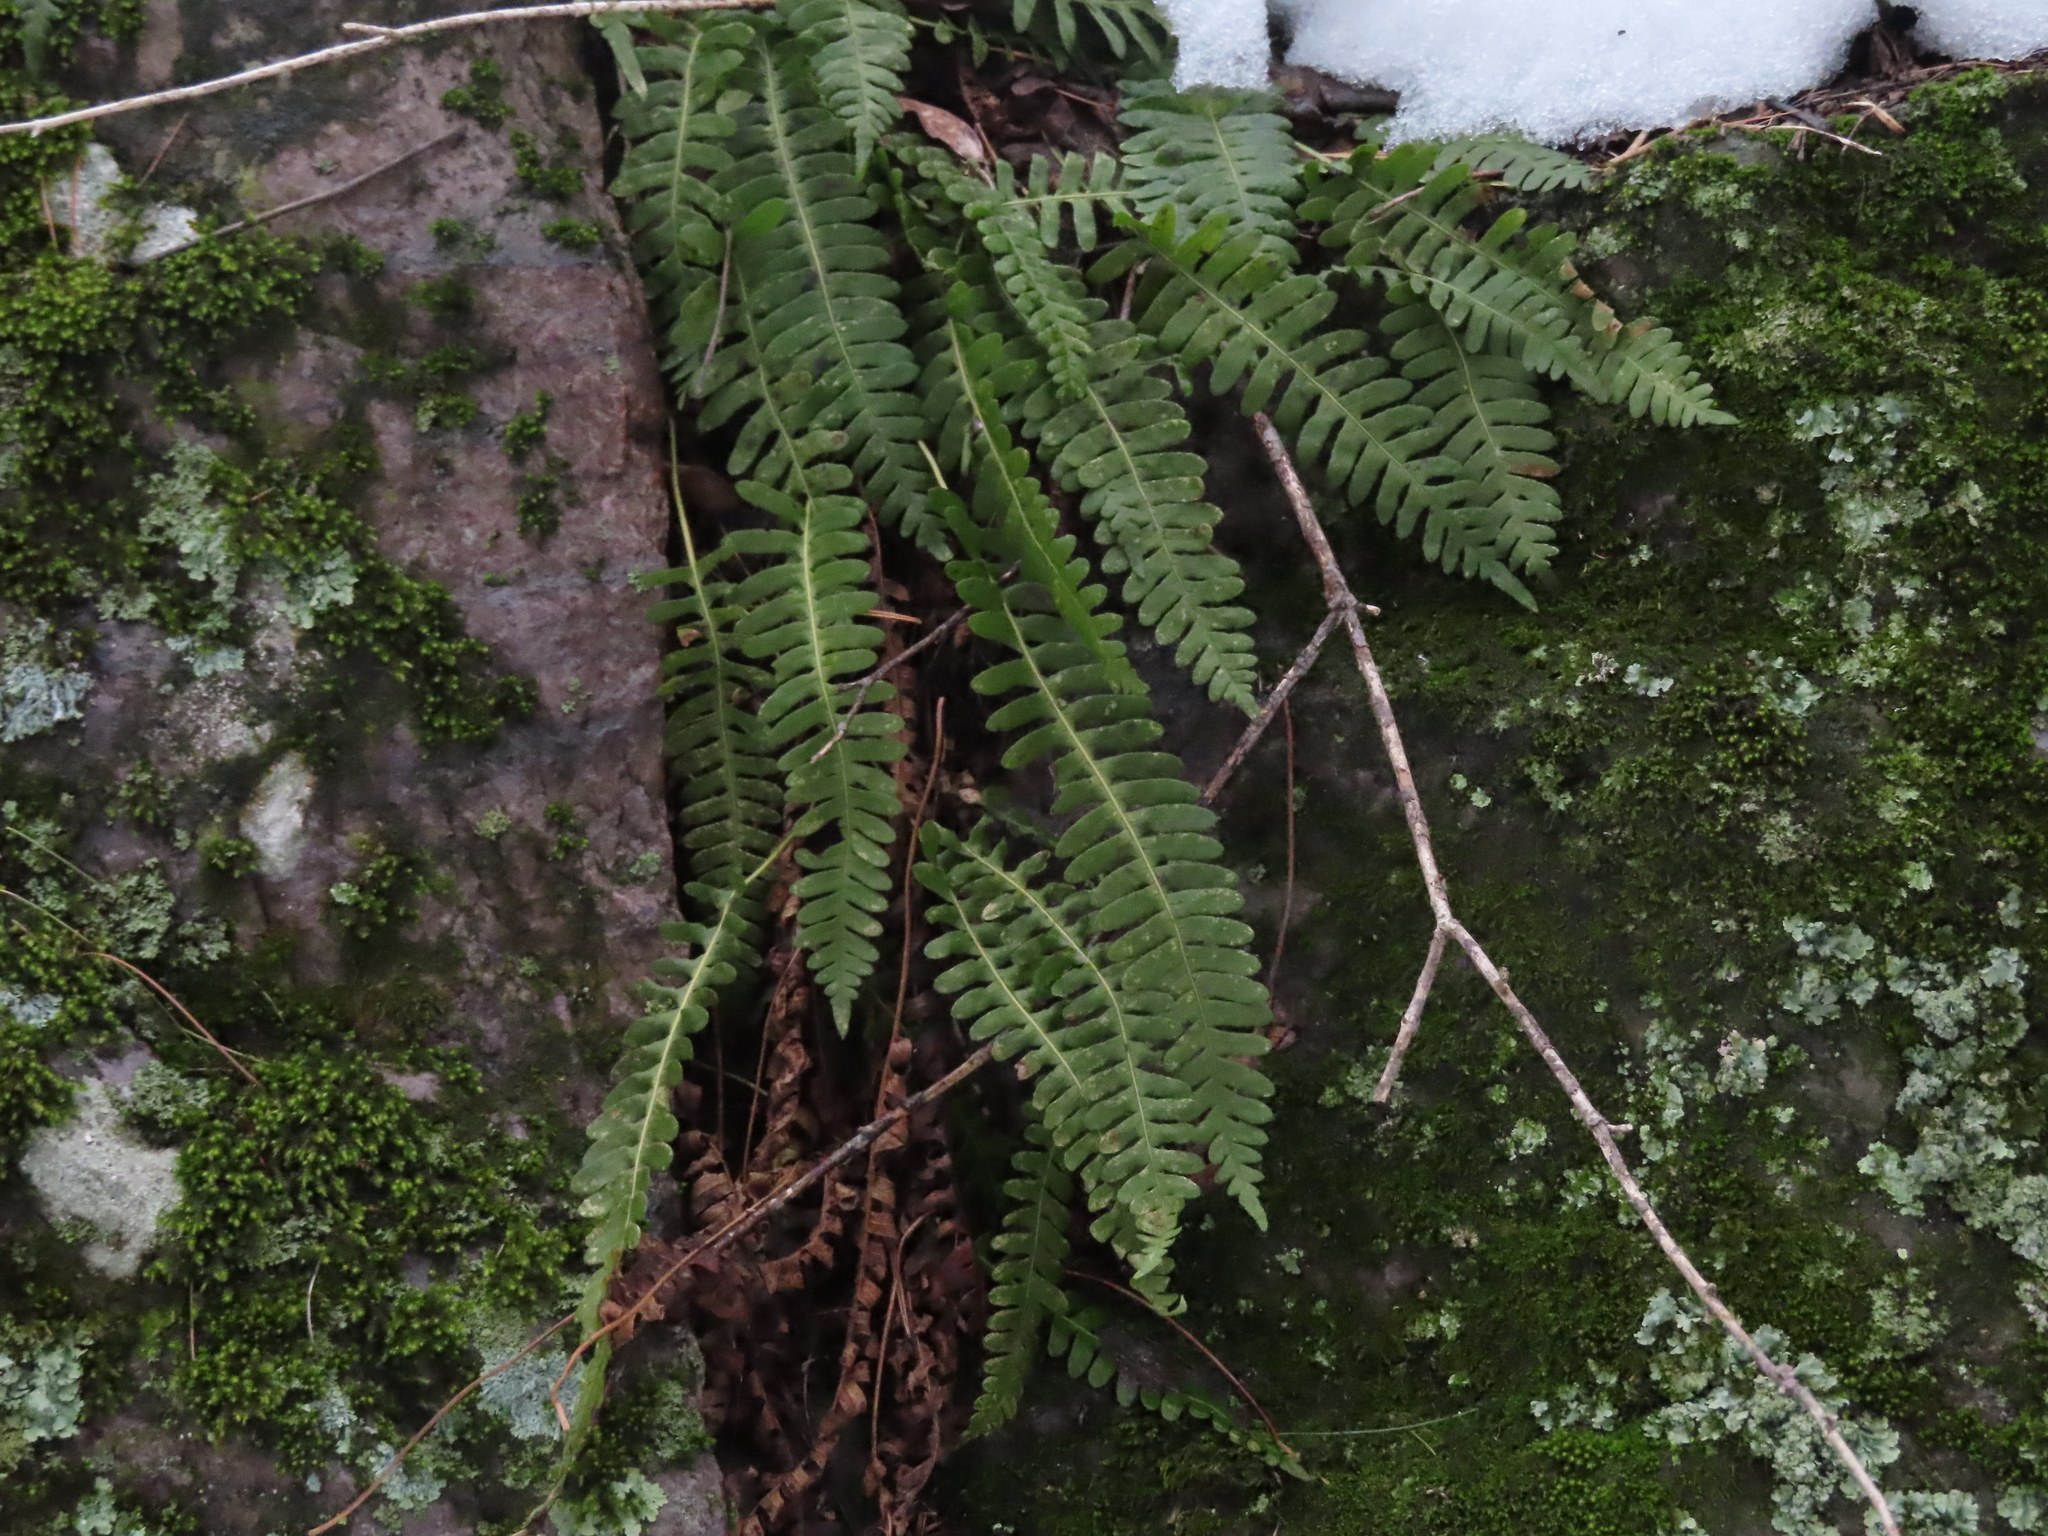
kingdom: Plantae
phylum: Tracheophyta
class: Polypodiopsida
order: Polypodiales
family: Polypodiaceae
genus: Polypodium
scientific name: Polypodium virginianum
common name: American wall fern
